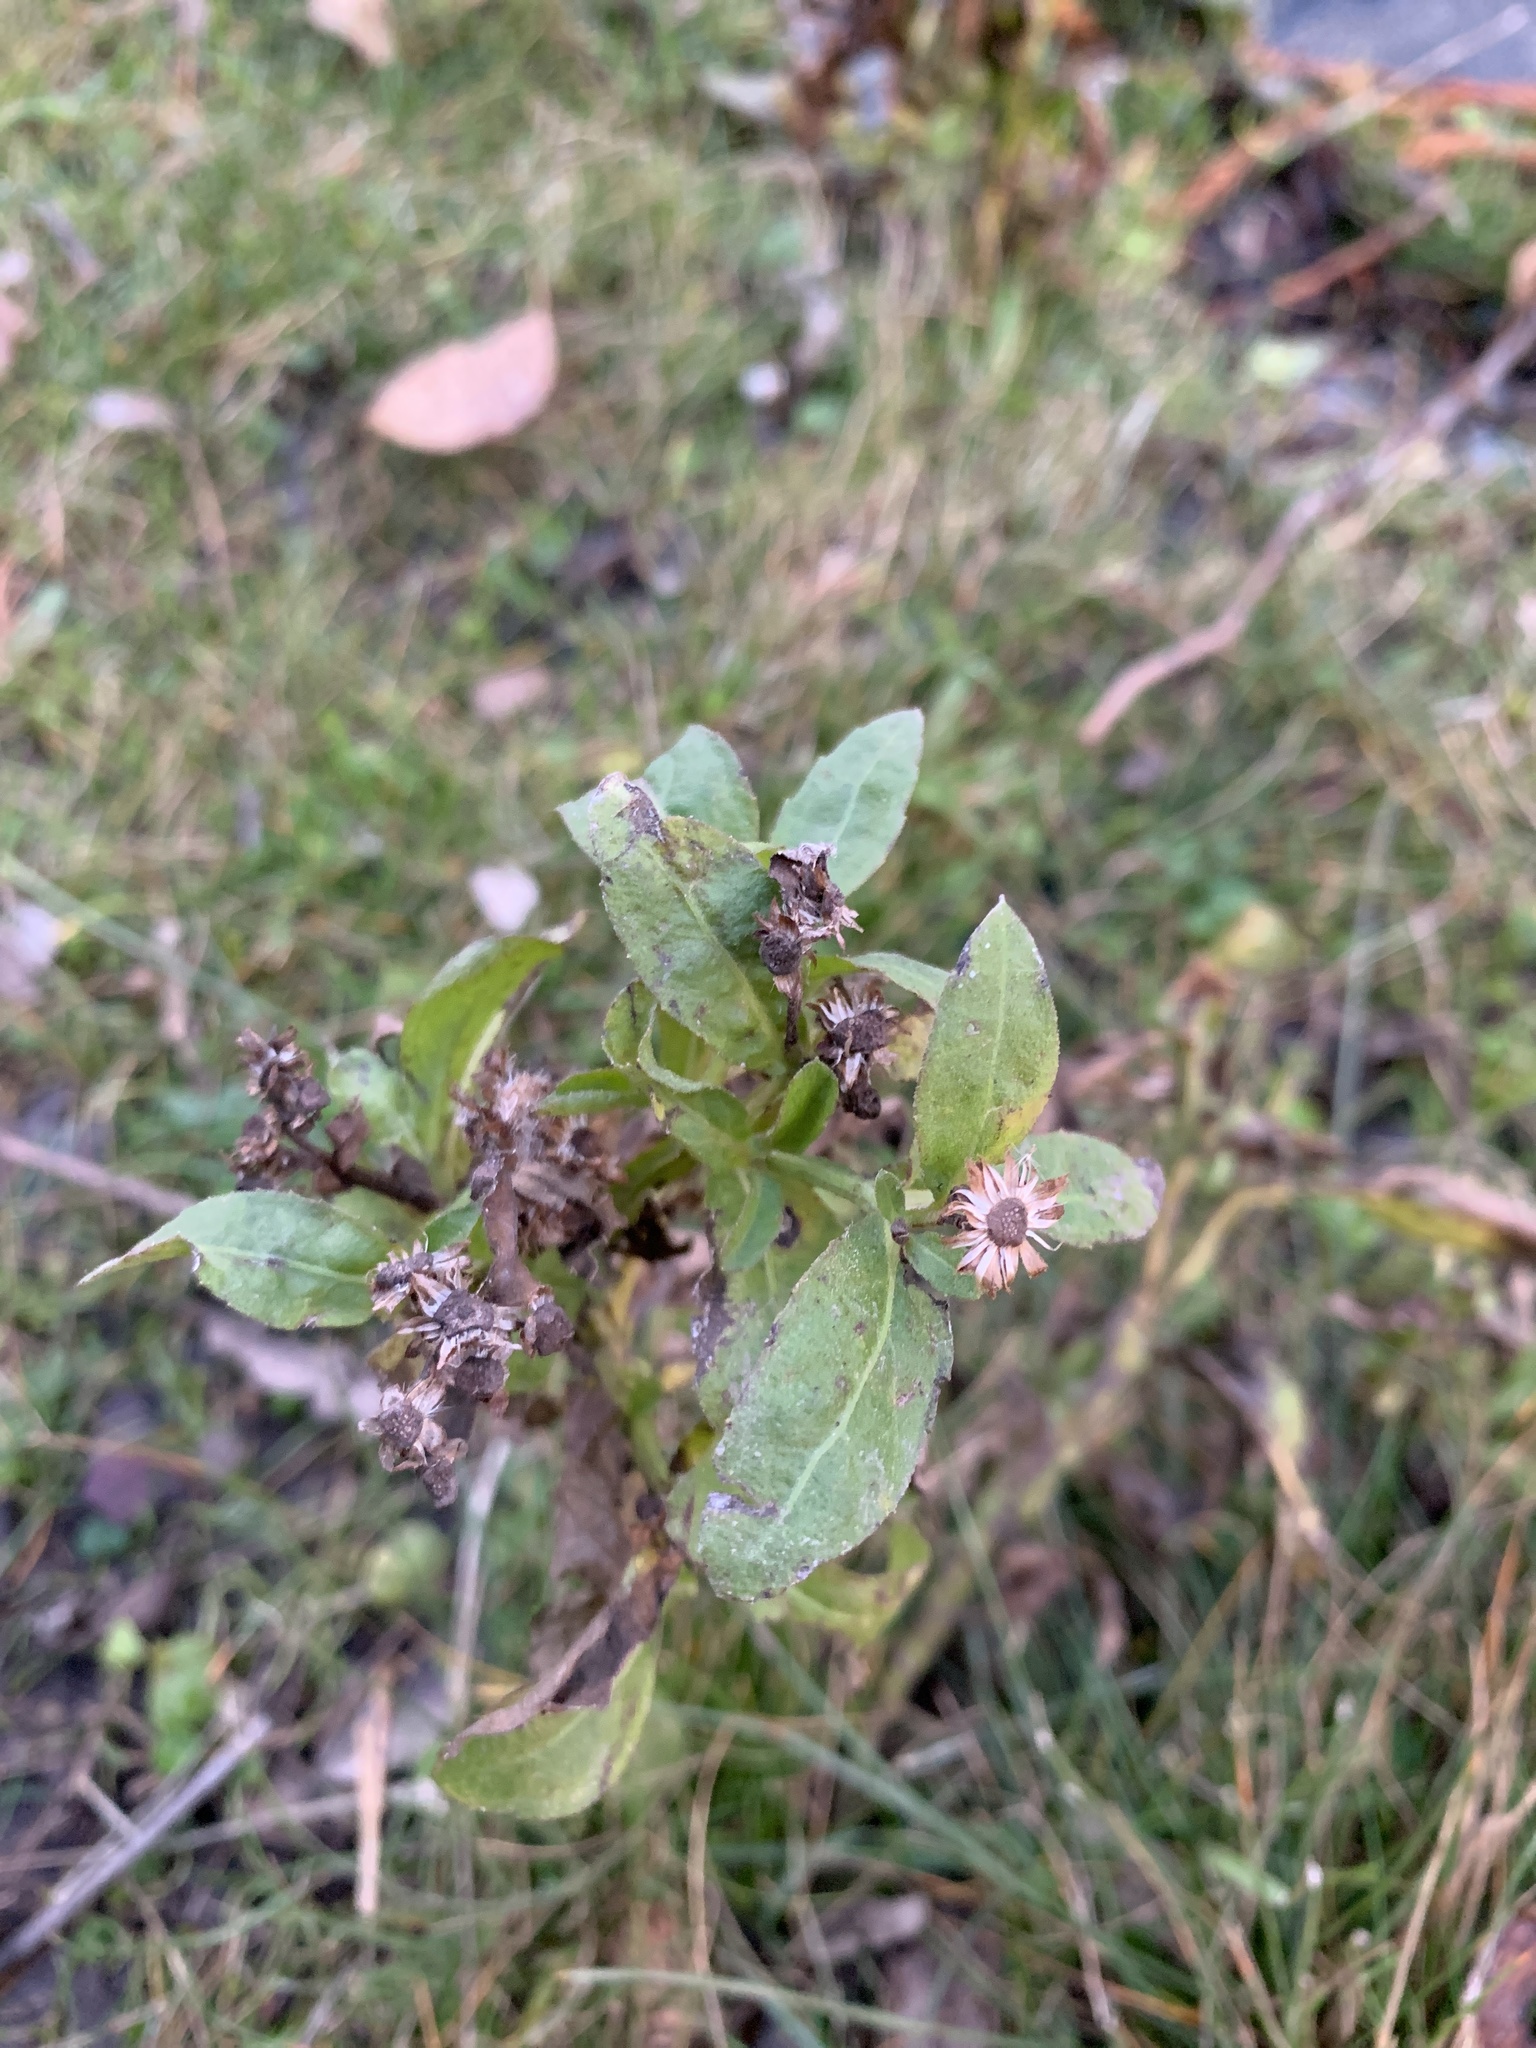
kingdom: Plantae
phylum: Tracheophyta
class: Magnoliopsida
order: Asterales
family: Asteraceae
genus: Pluchea
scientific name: Pluchea sagittalis
